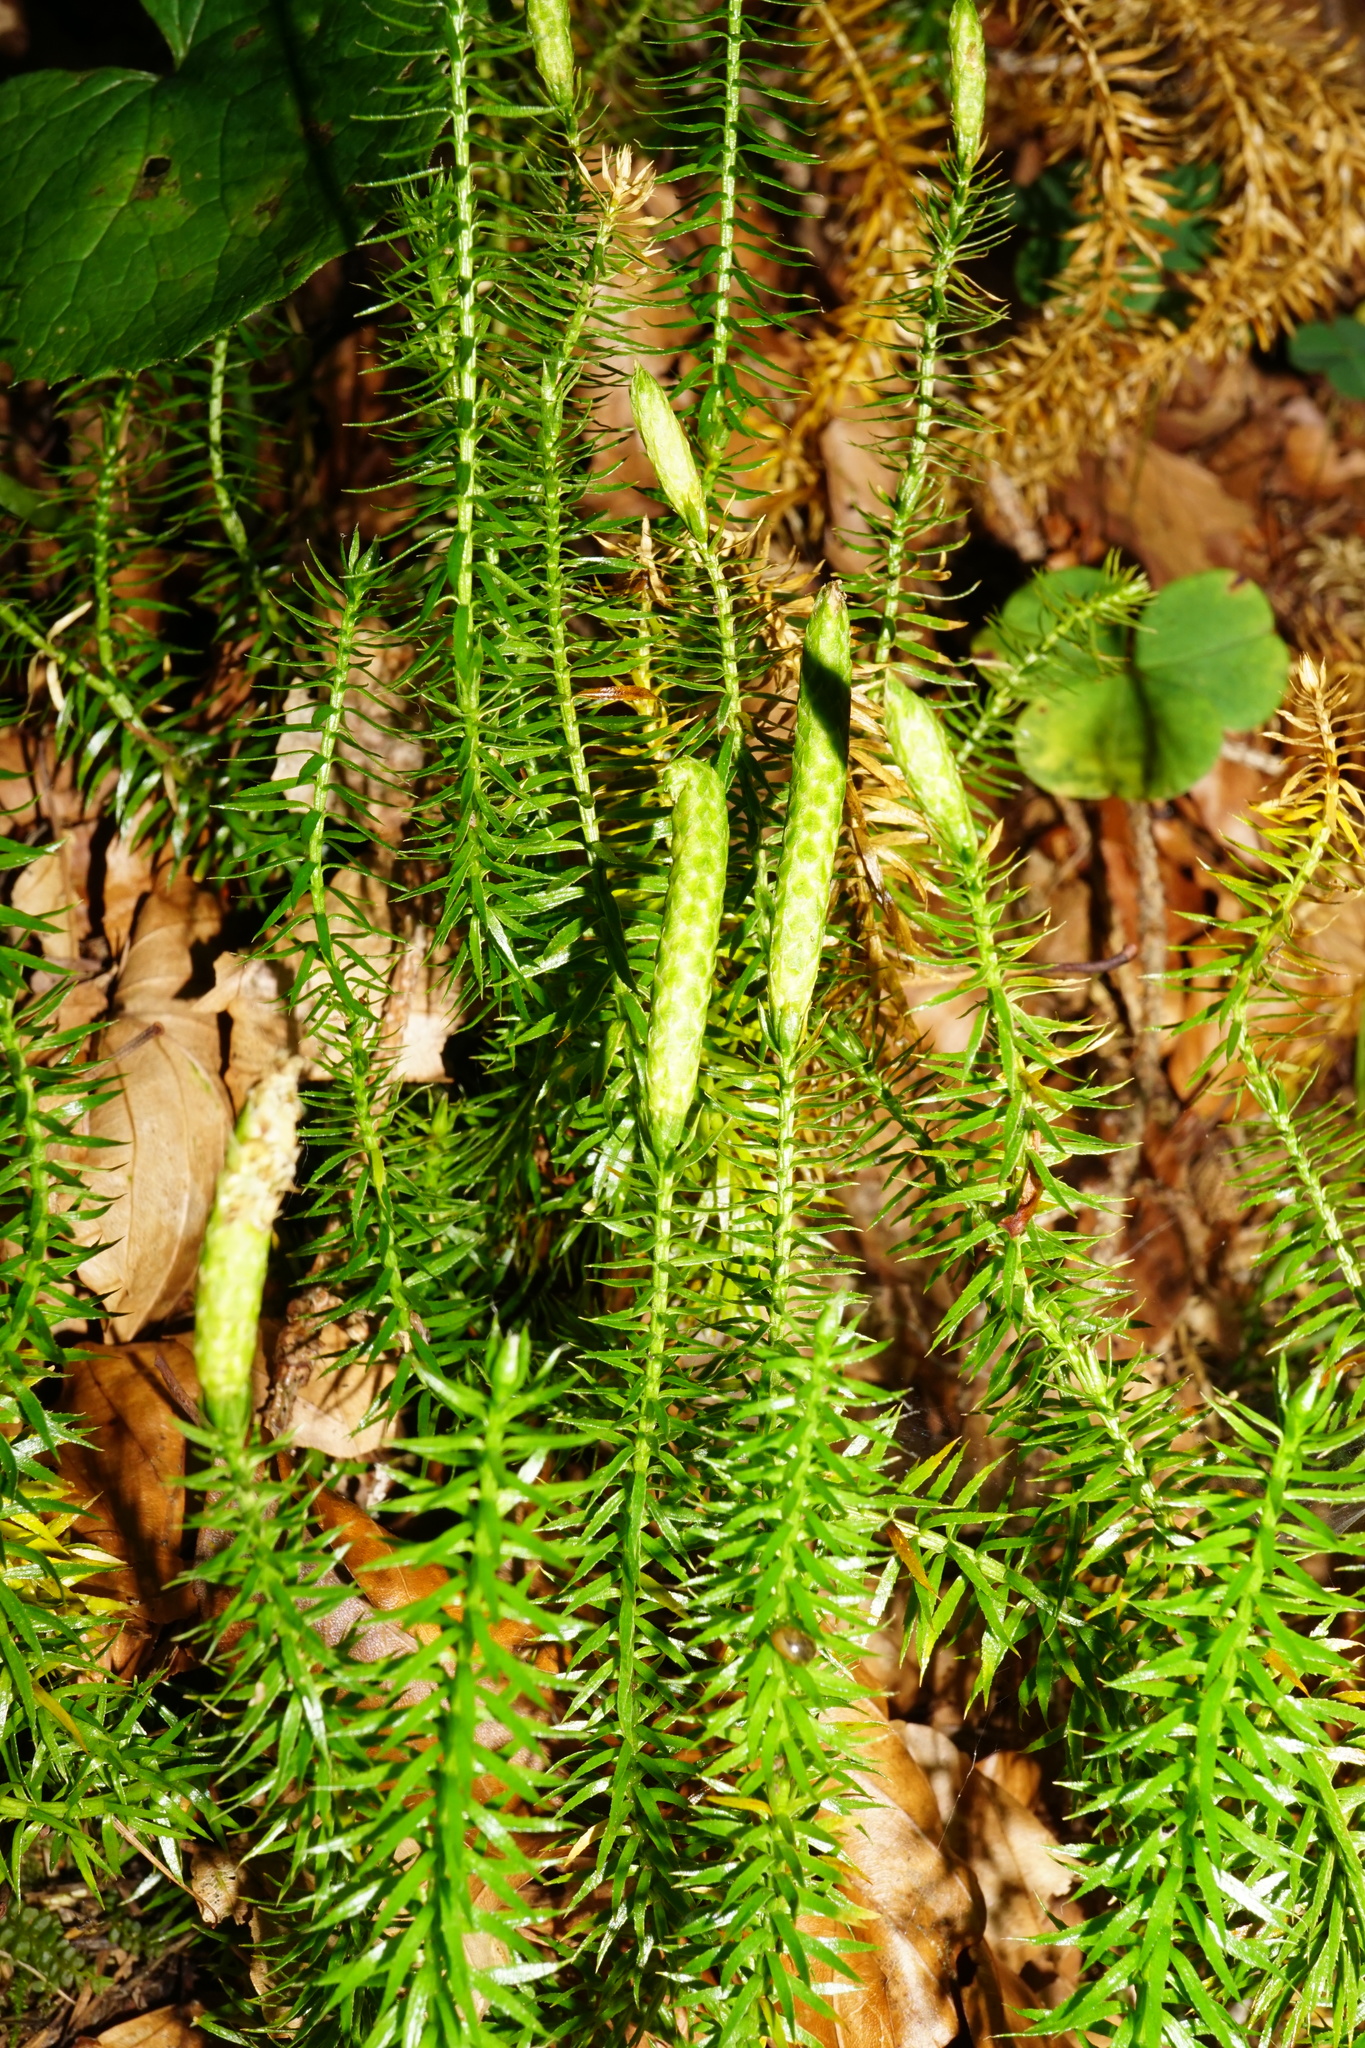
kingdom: Plantae
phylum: Tracheophyta
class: Lycopodiopsida
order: Lycopodiales
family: Lycopodiaceae
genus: Spinulum
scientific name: Spinulum annotinum
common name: Interrupted club-moss
